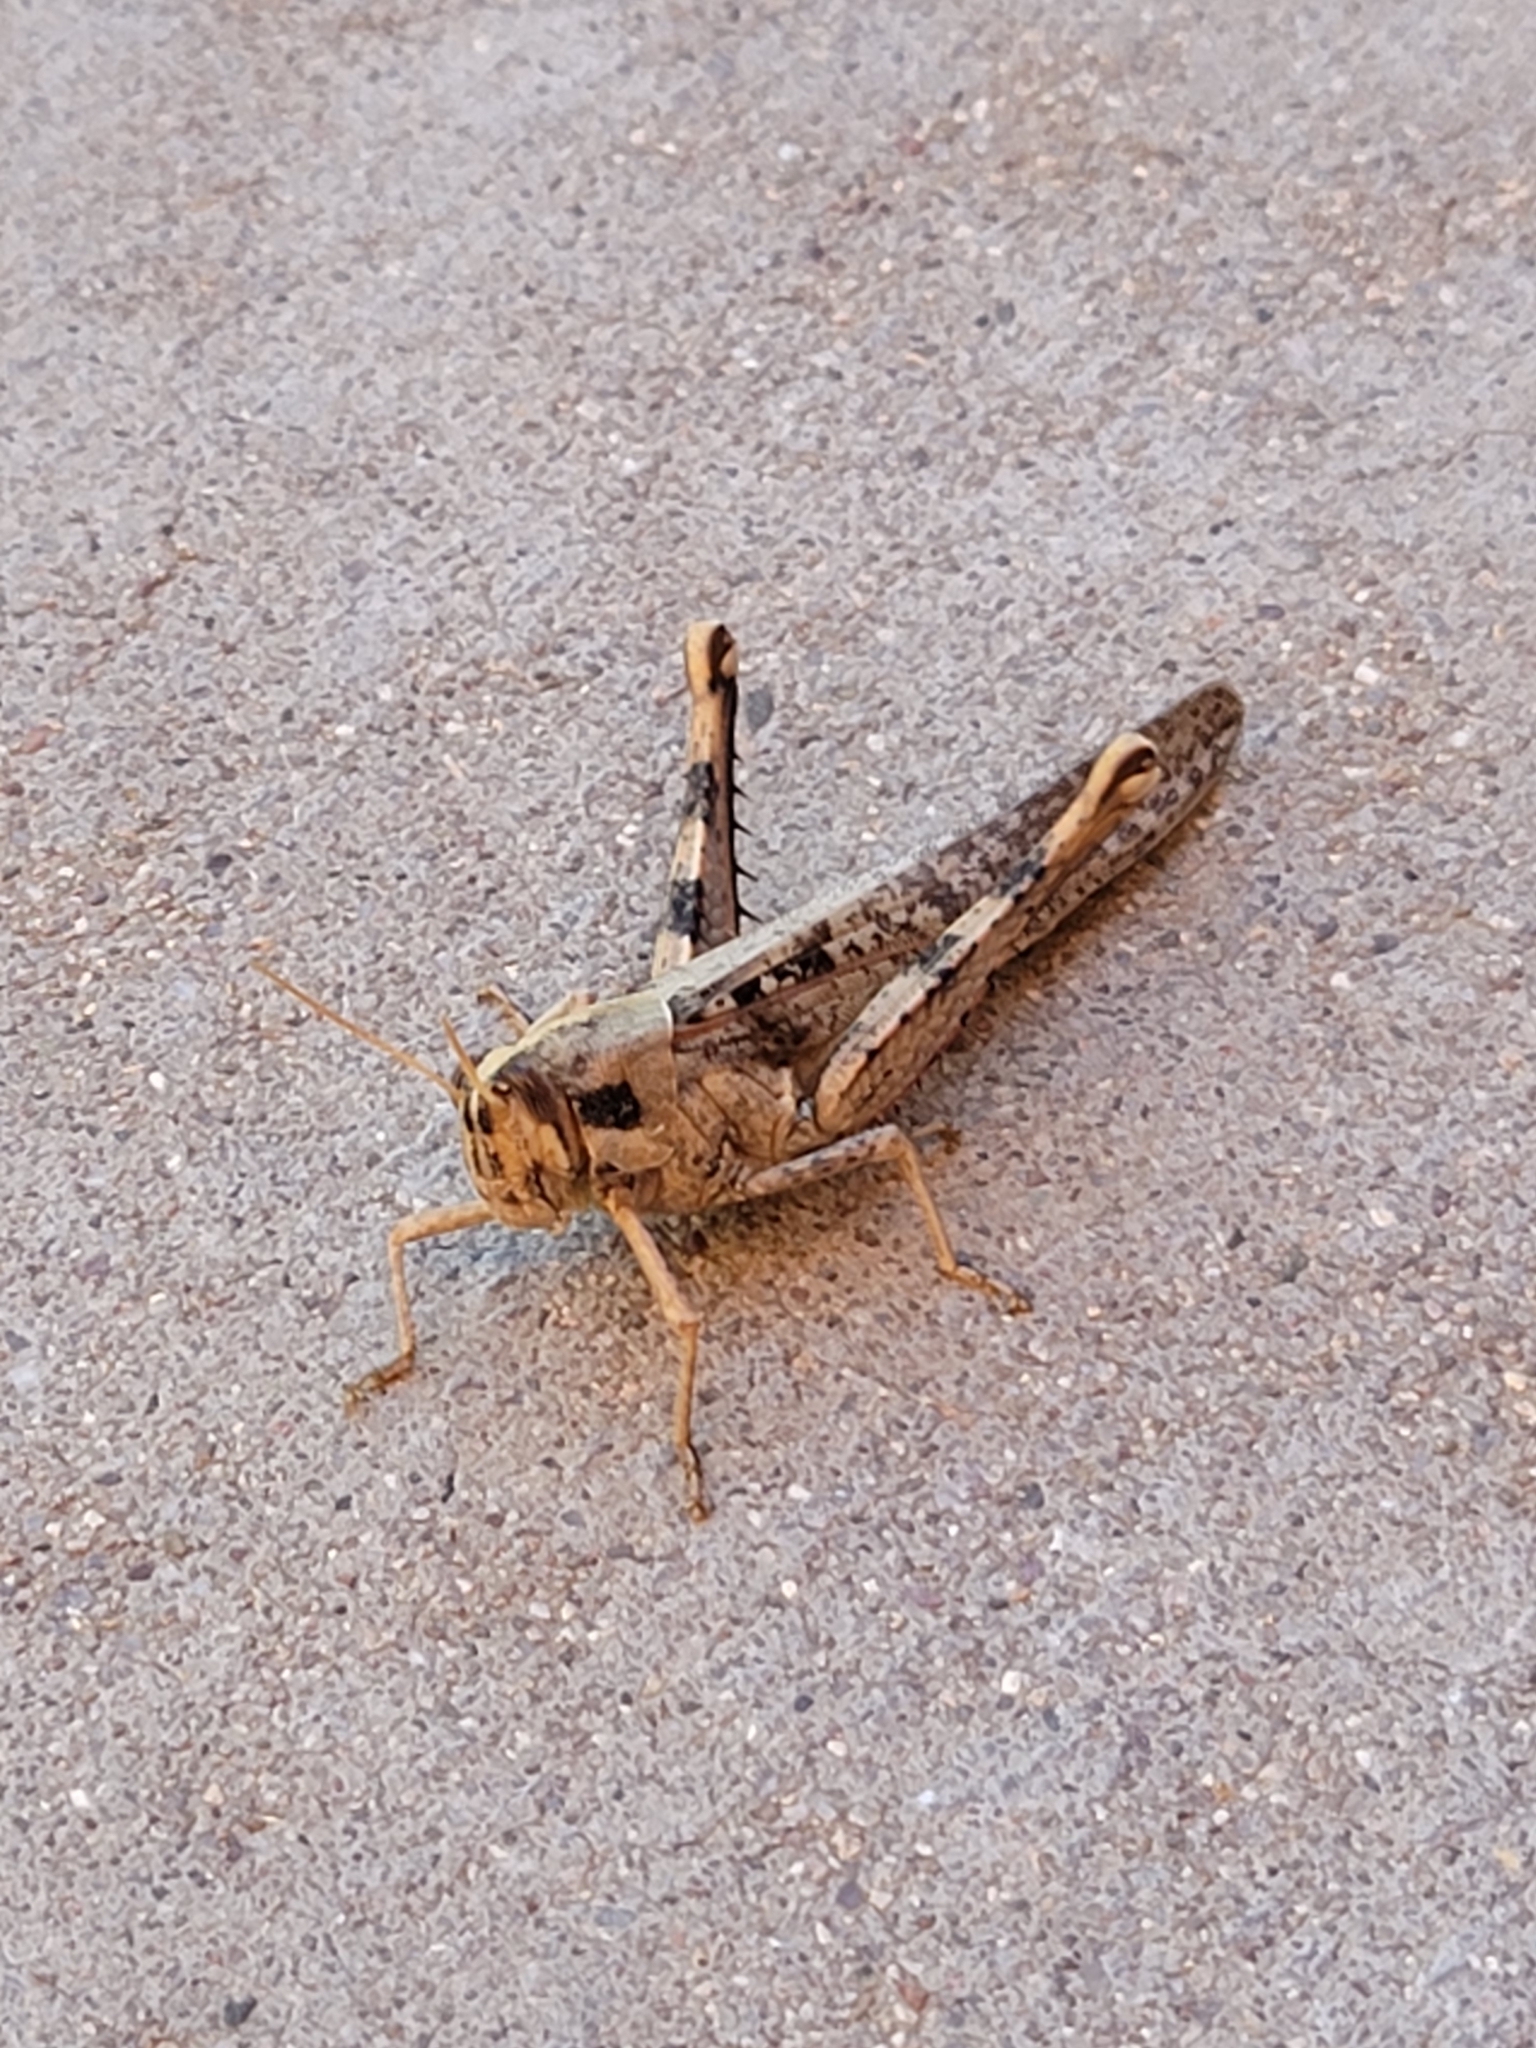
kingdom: Animalia
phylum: Arthropoda
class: Insecta
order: Orthoptera
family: Acrididae
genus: Schistocerca
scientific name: Schistocerca nitens
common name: Vagrant grasshopper
